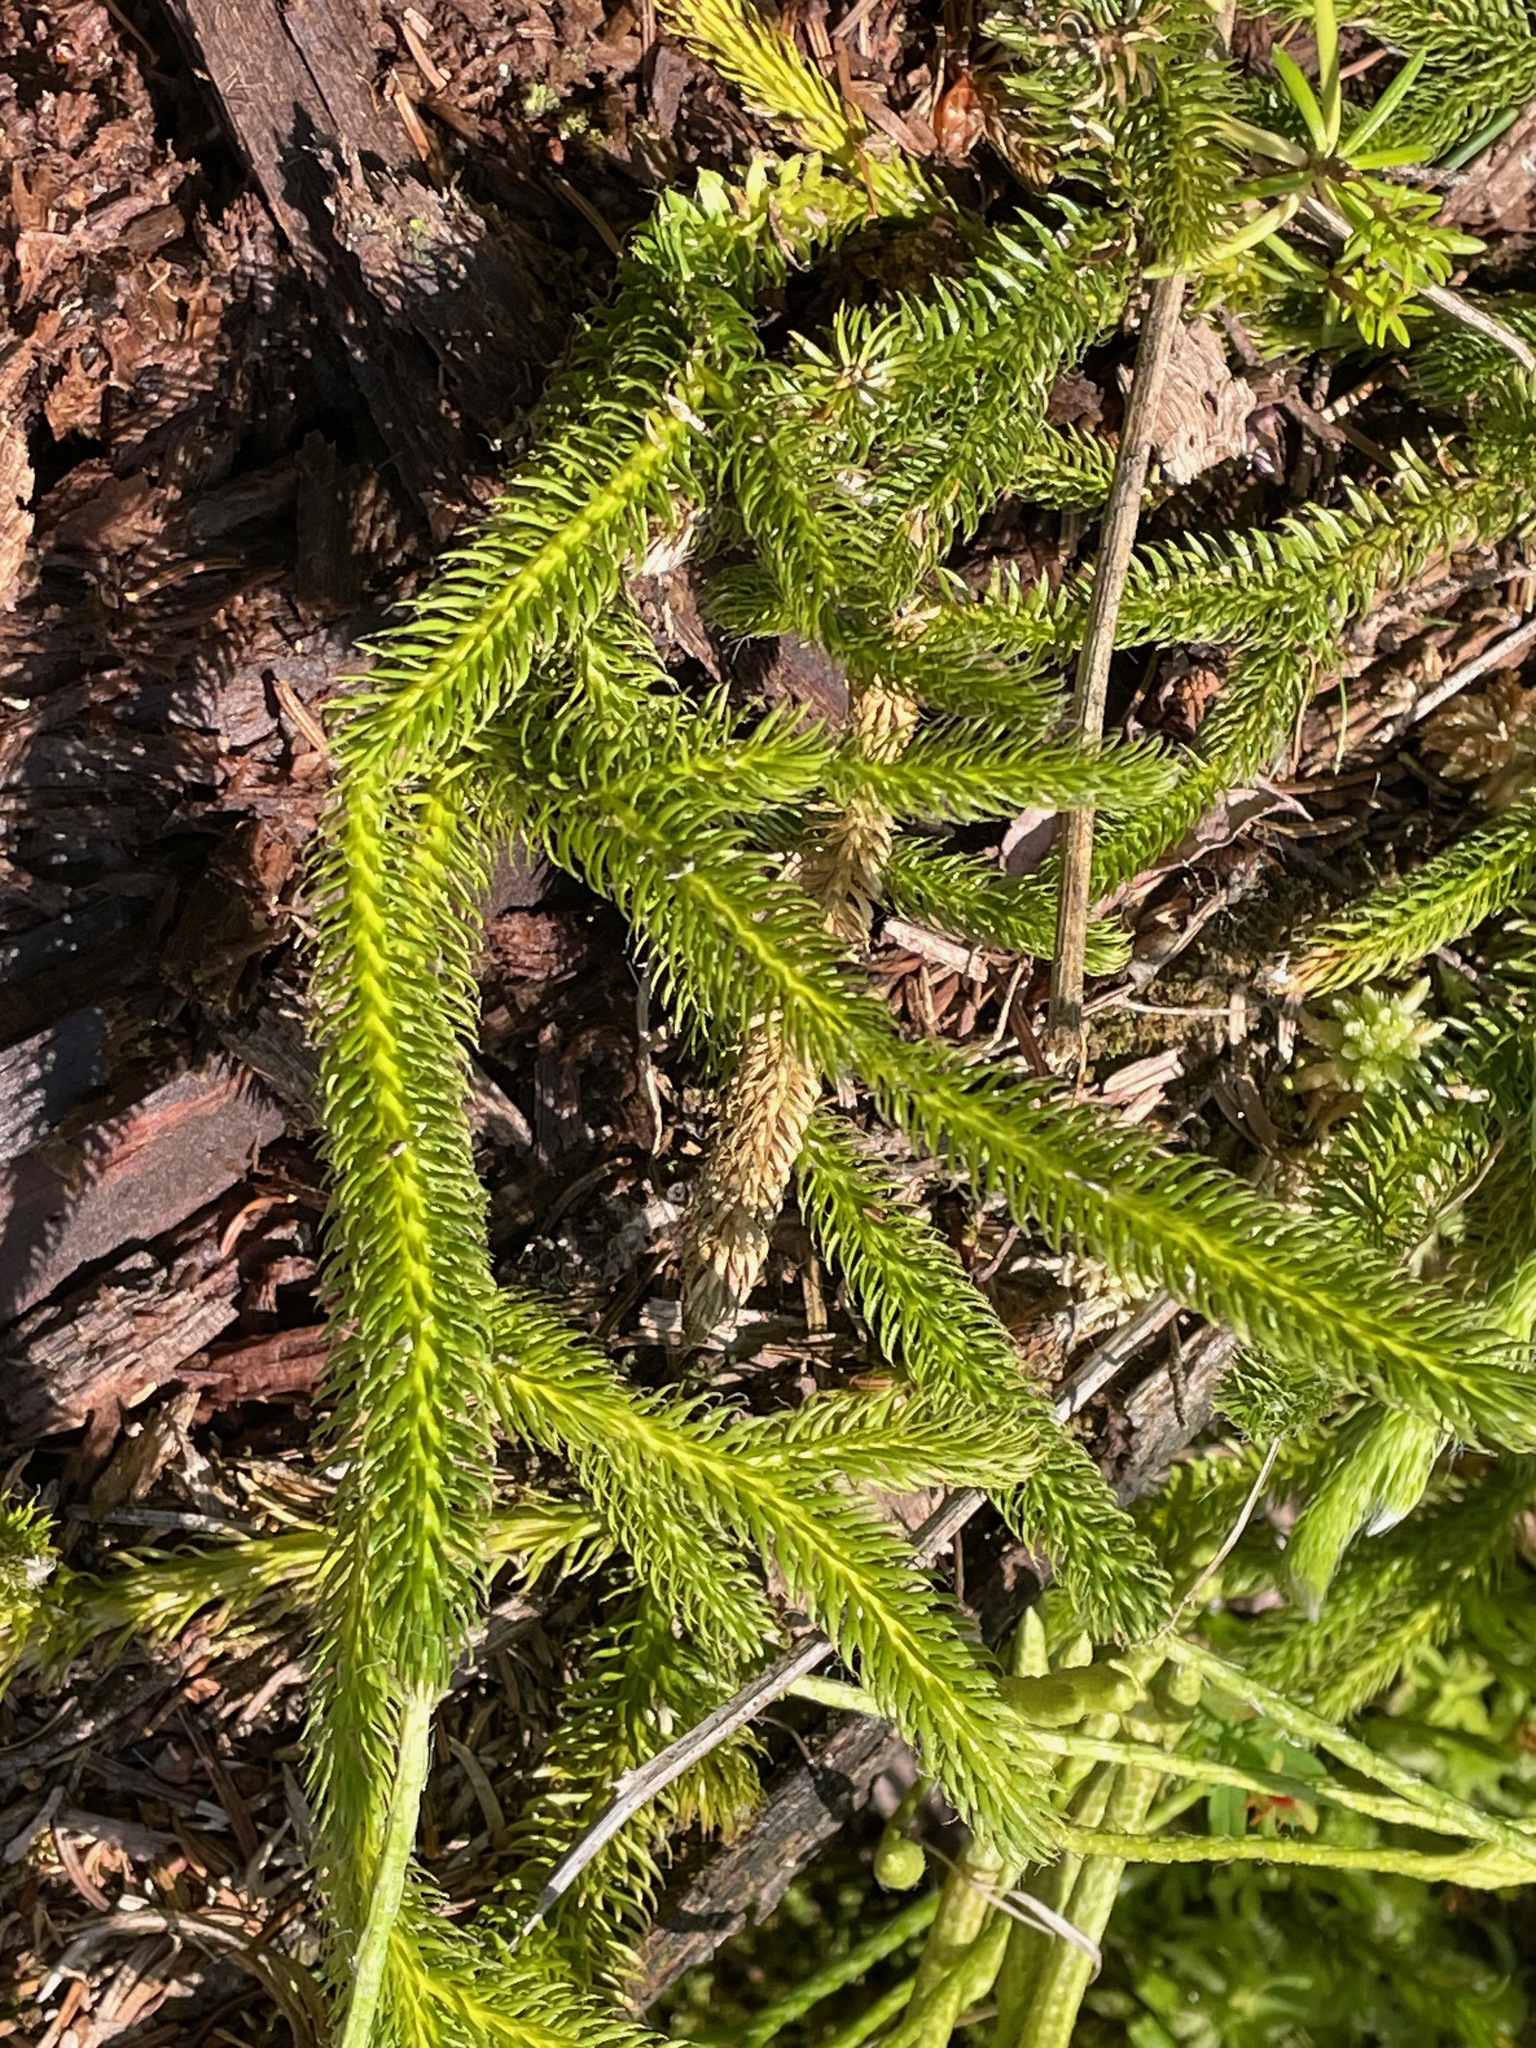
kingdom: Plantae
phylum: Tracheophyta
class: Lycopodiopsida
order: Lycopodiales
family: Lycopodiaceae
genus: Lycopodium
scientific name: Lycopodium clavatum
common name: Stag's-horn clubmoss
